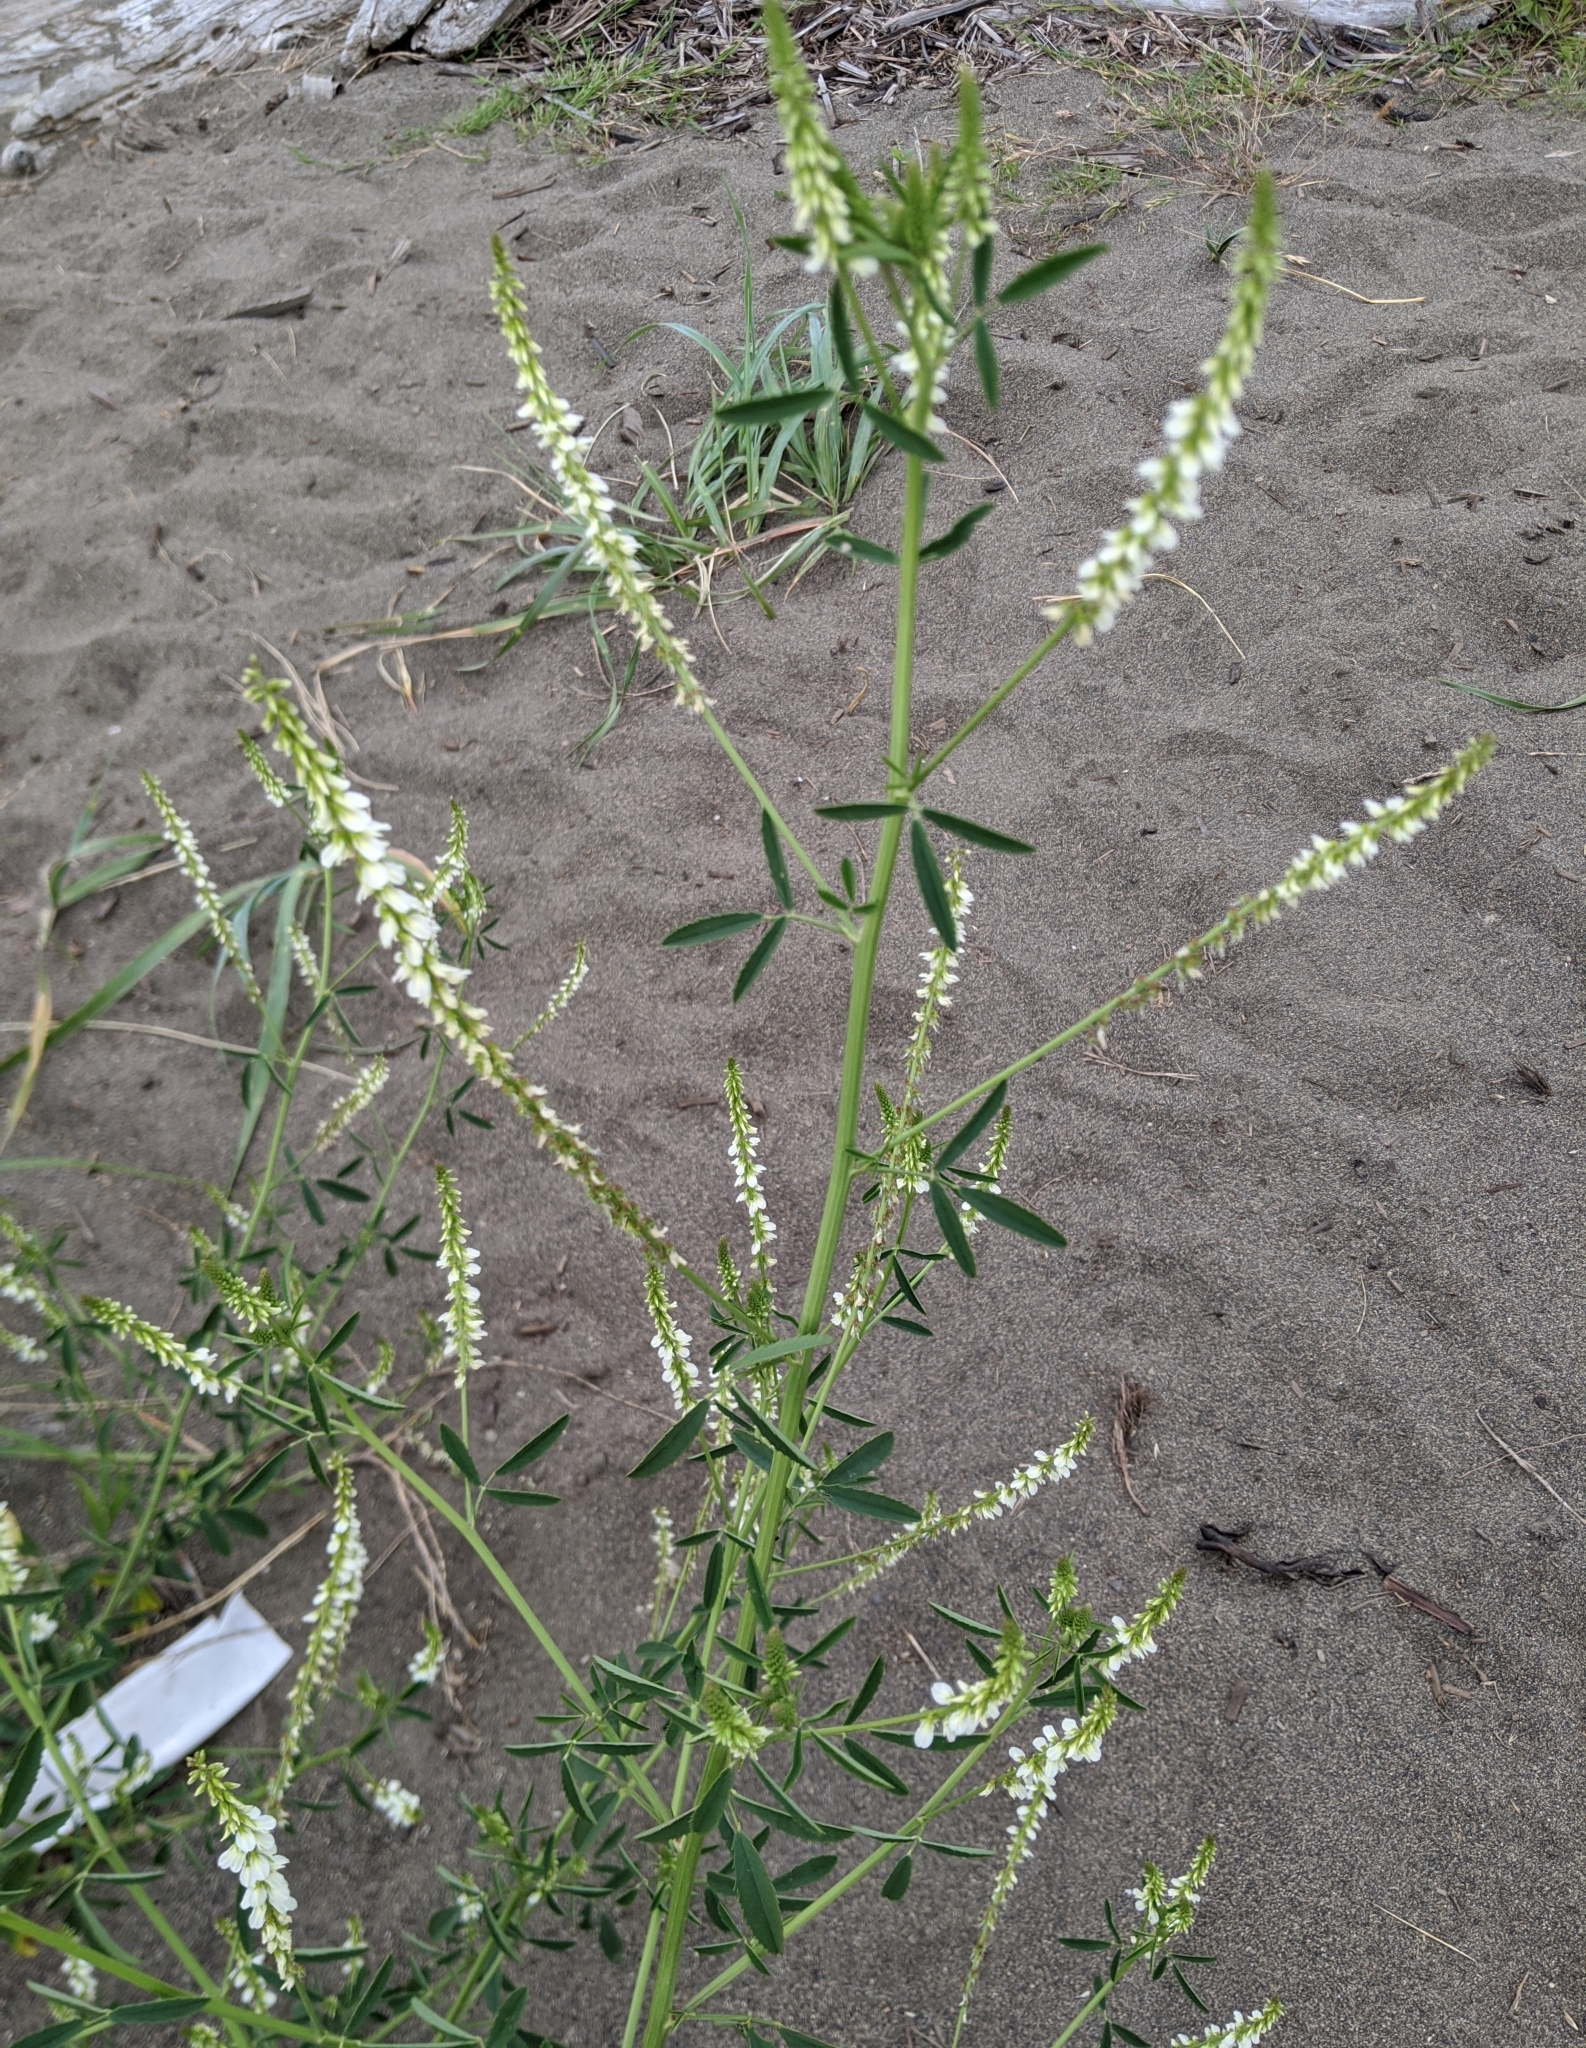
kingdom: Plantae
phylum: Tracheophyta
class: Magnoliopsida
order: Fabales
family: Fabaceae
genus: Melilotus
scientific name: Melilotus albus
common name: White melilot
